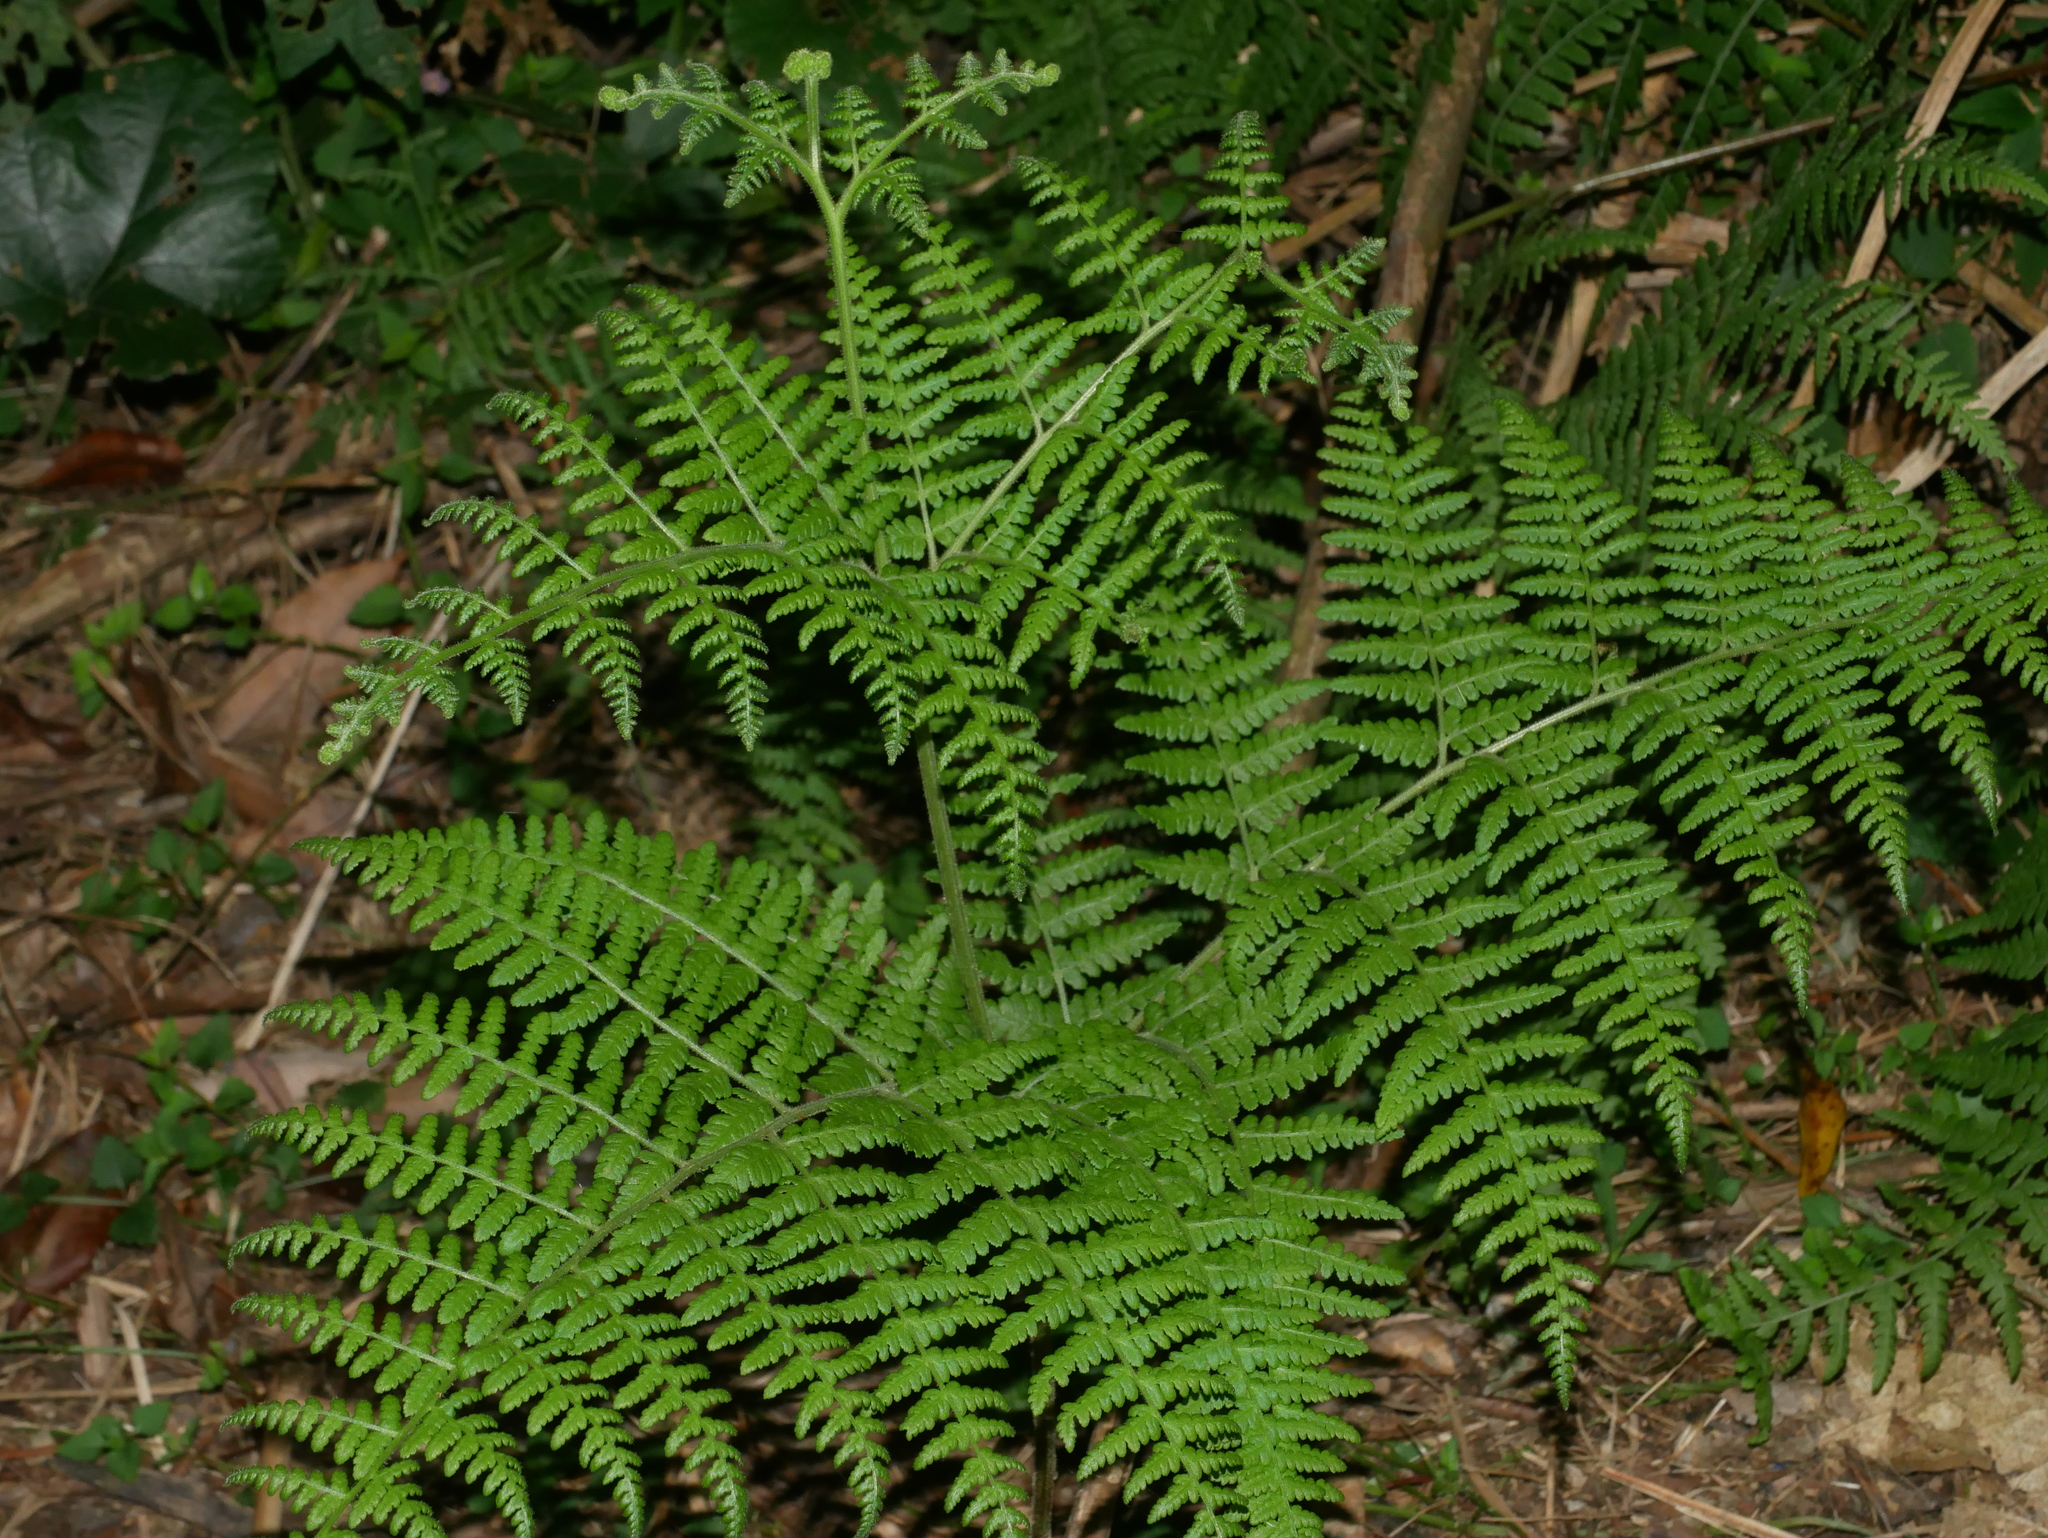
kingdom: Plantae
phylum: Tracheophyta
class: Polypodiopsida
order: Polypodiales
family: Dennstaedtiaceae
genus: Hypolepis
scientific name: Hypolepis alpina
